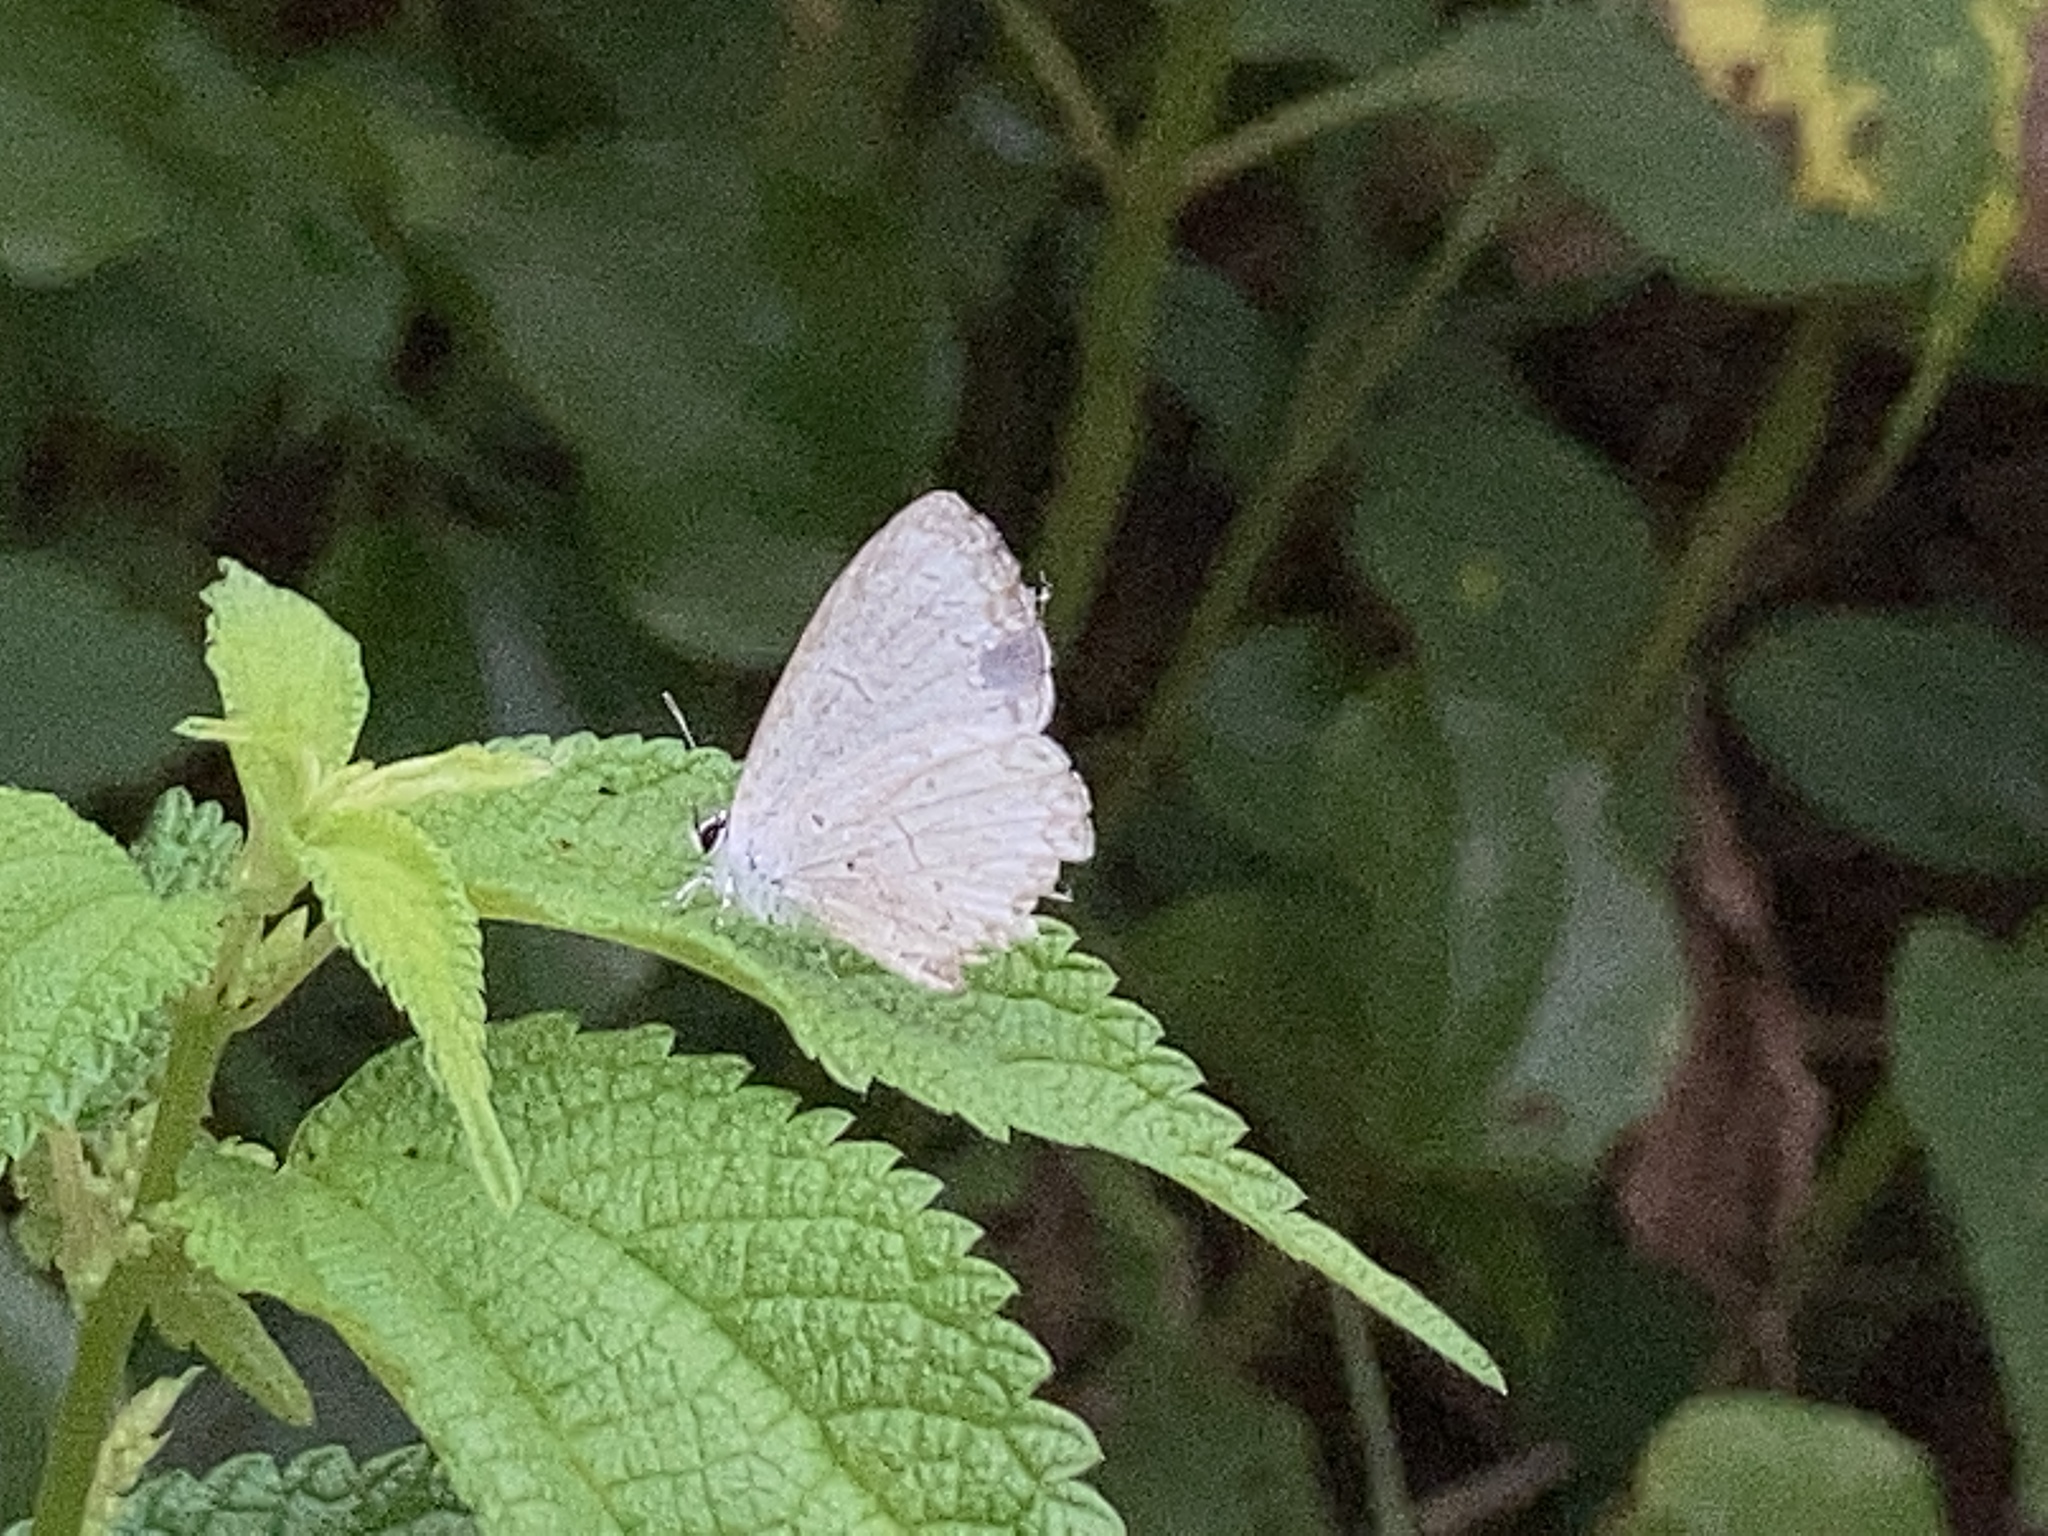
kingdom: Animalia
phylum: Arthropoda
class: Insecta
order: Lepidoptera
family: Lycaenidae
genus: Cyaniris
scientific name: Cyaniris neglecta
